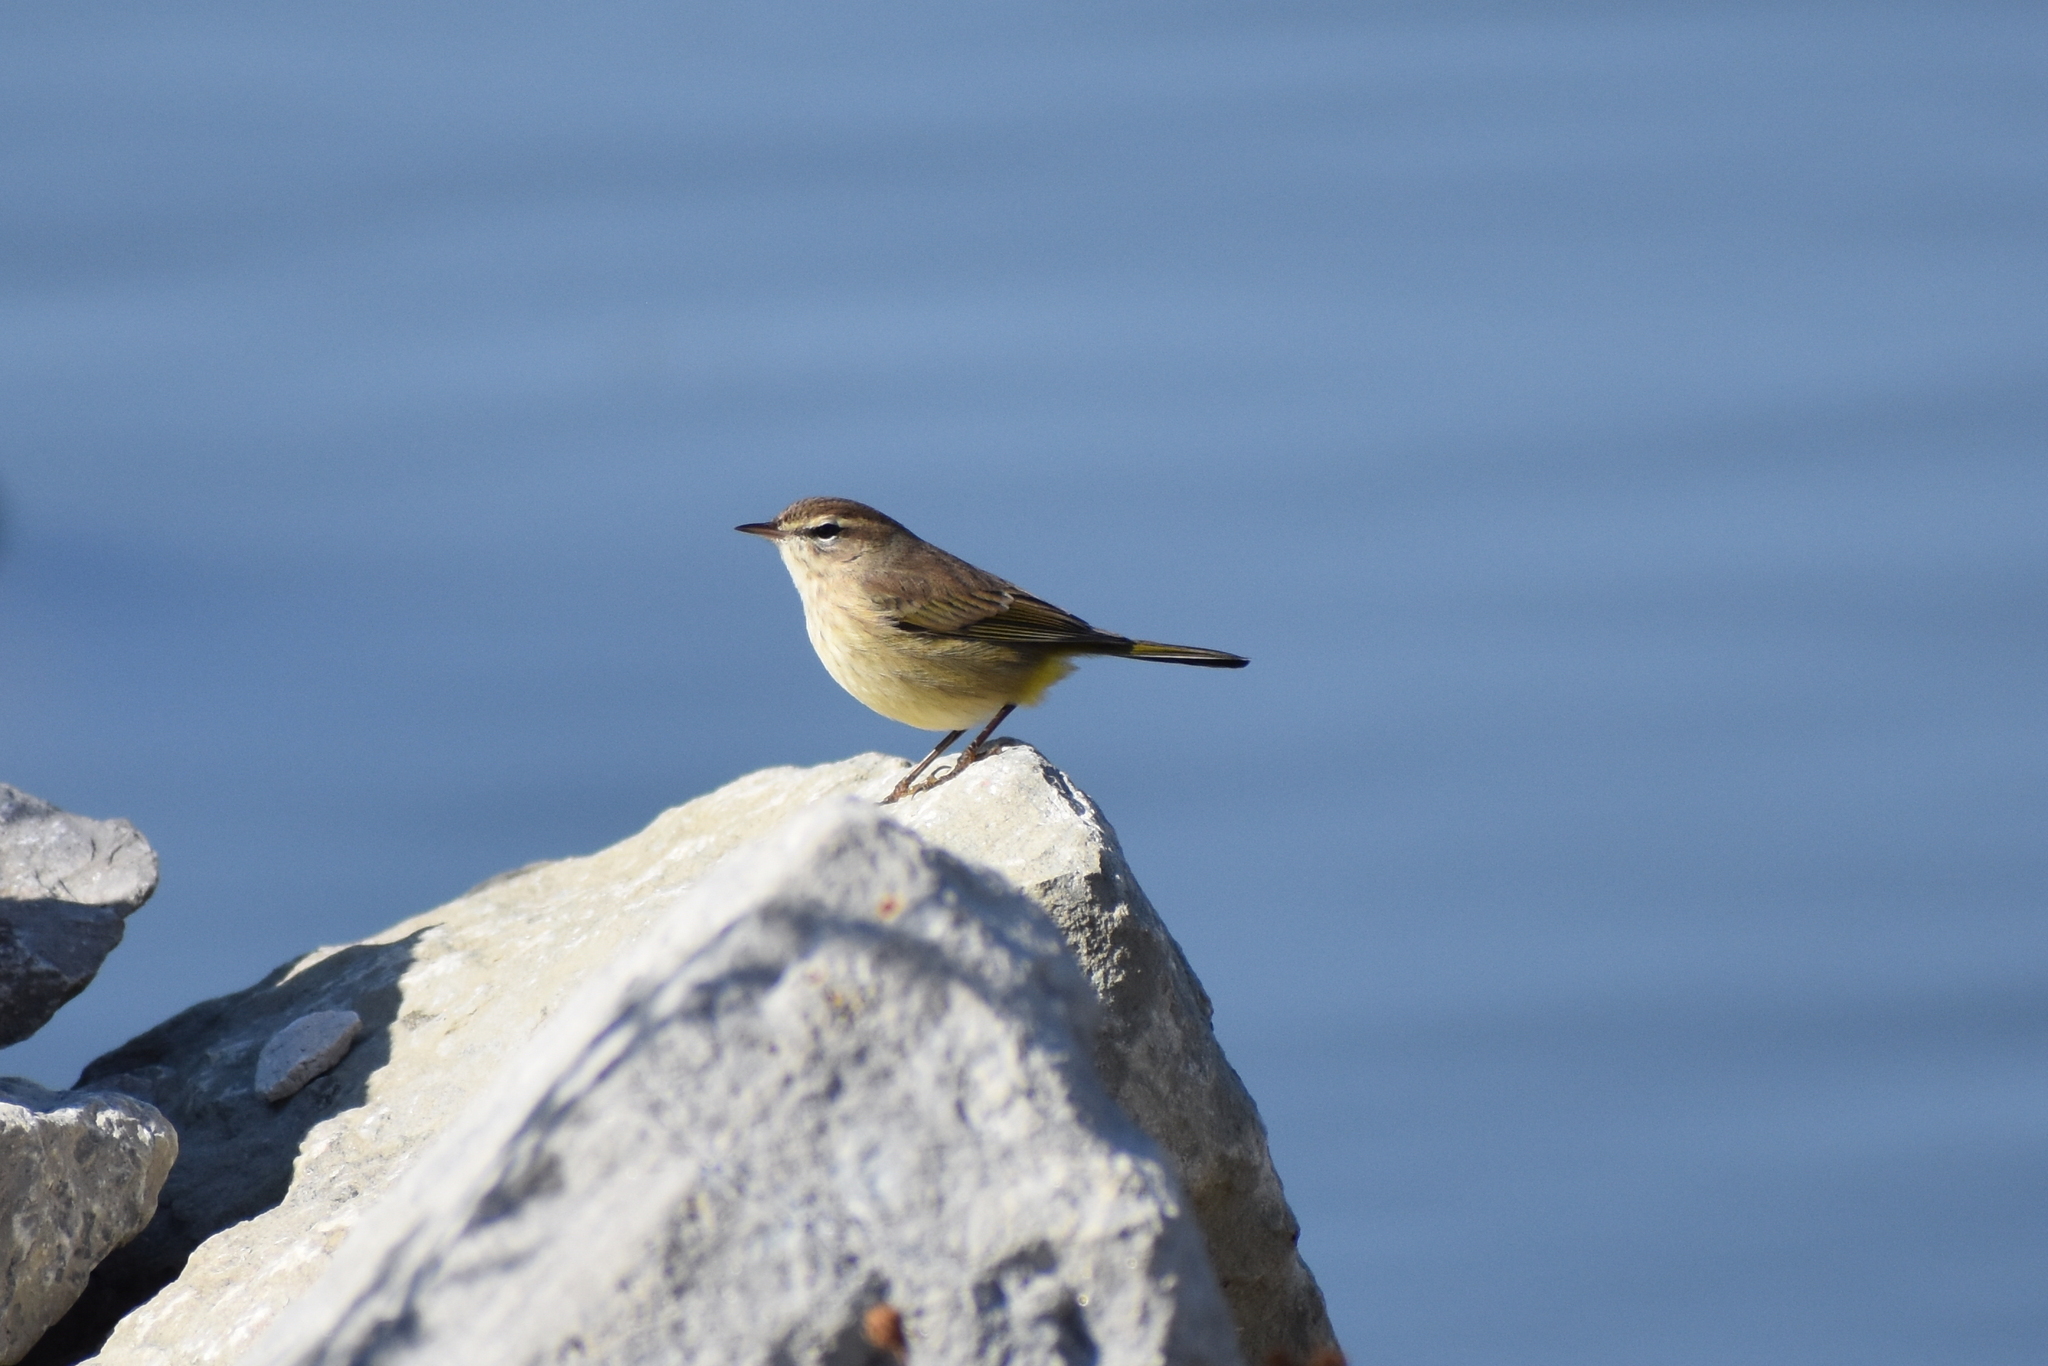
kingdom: Animalia
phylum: Chordata
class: Aves
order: Passeriformes
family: Parulidae
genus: Setophaga
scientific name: Setophaga palmarum
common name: Palm warbler
